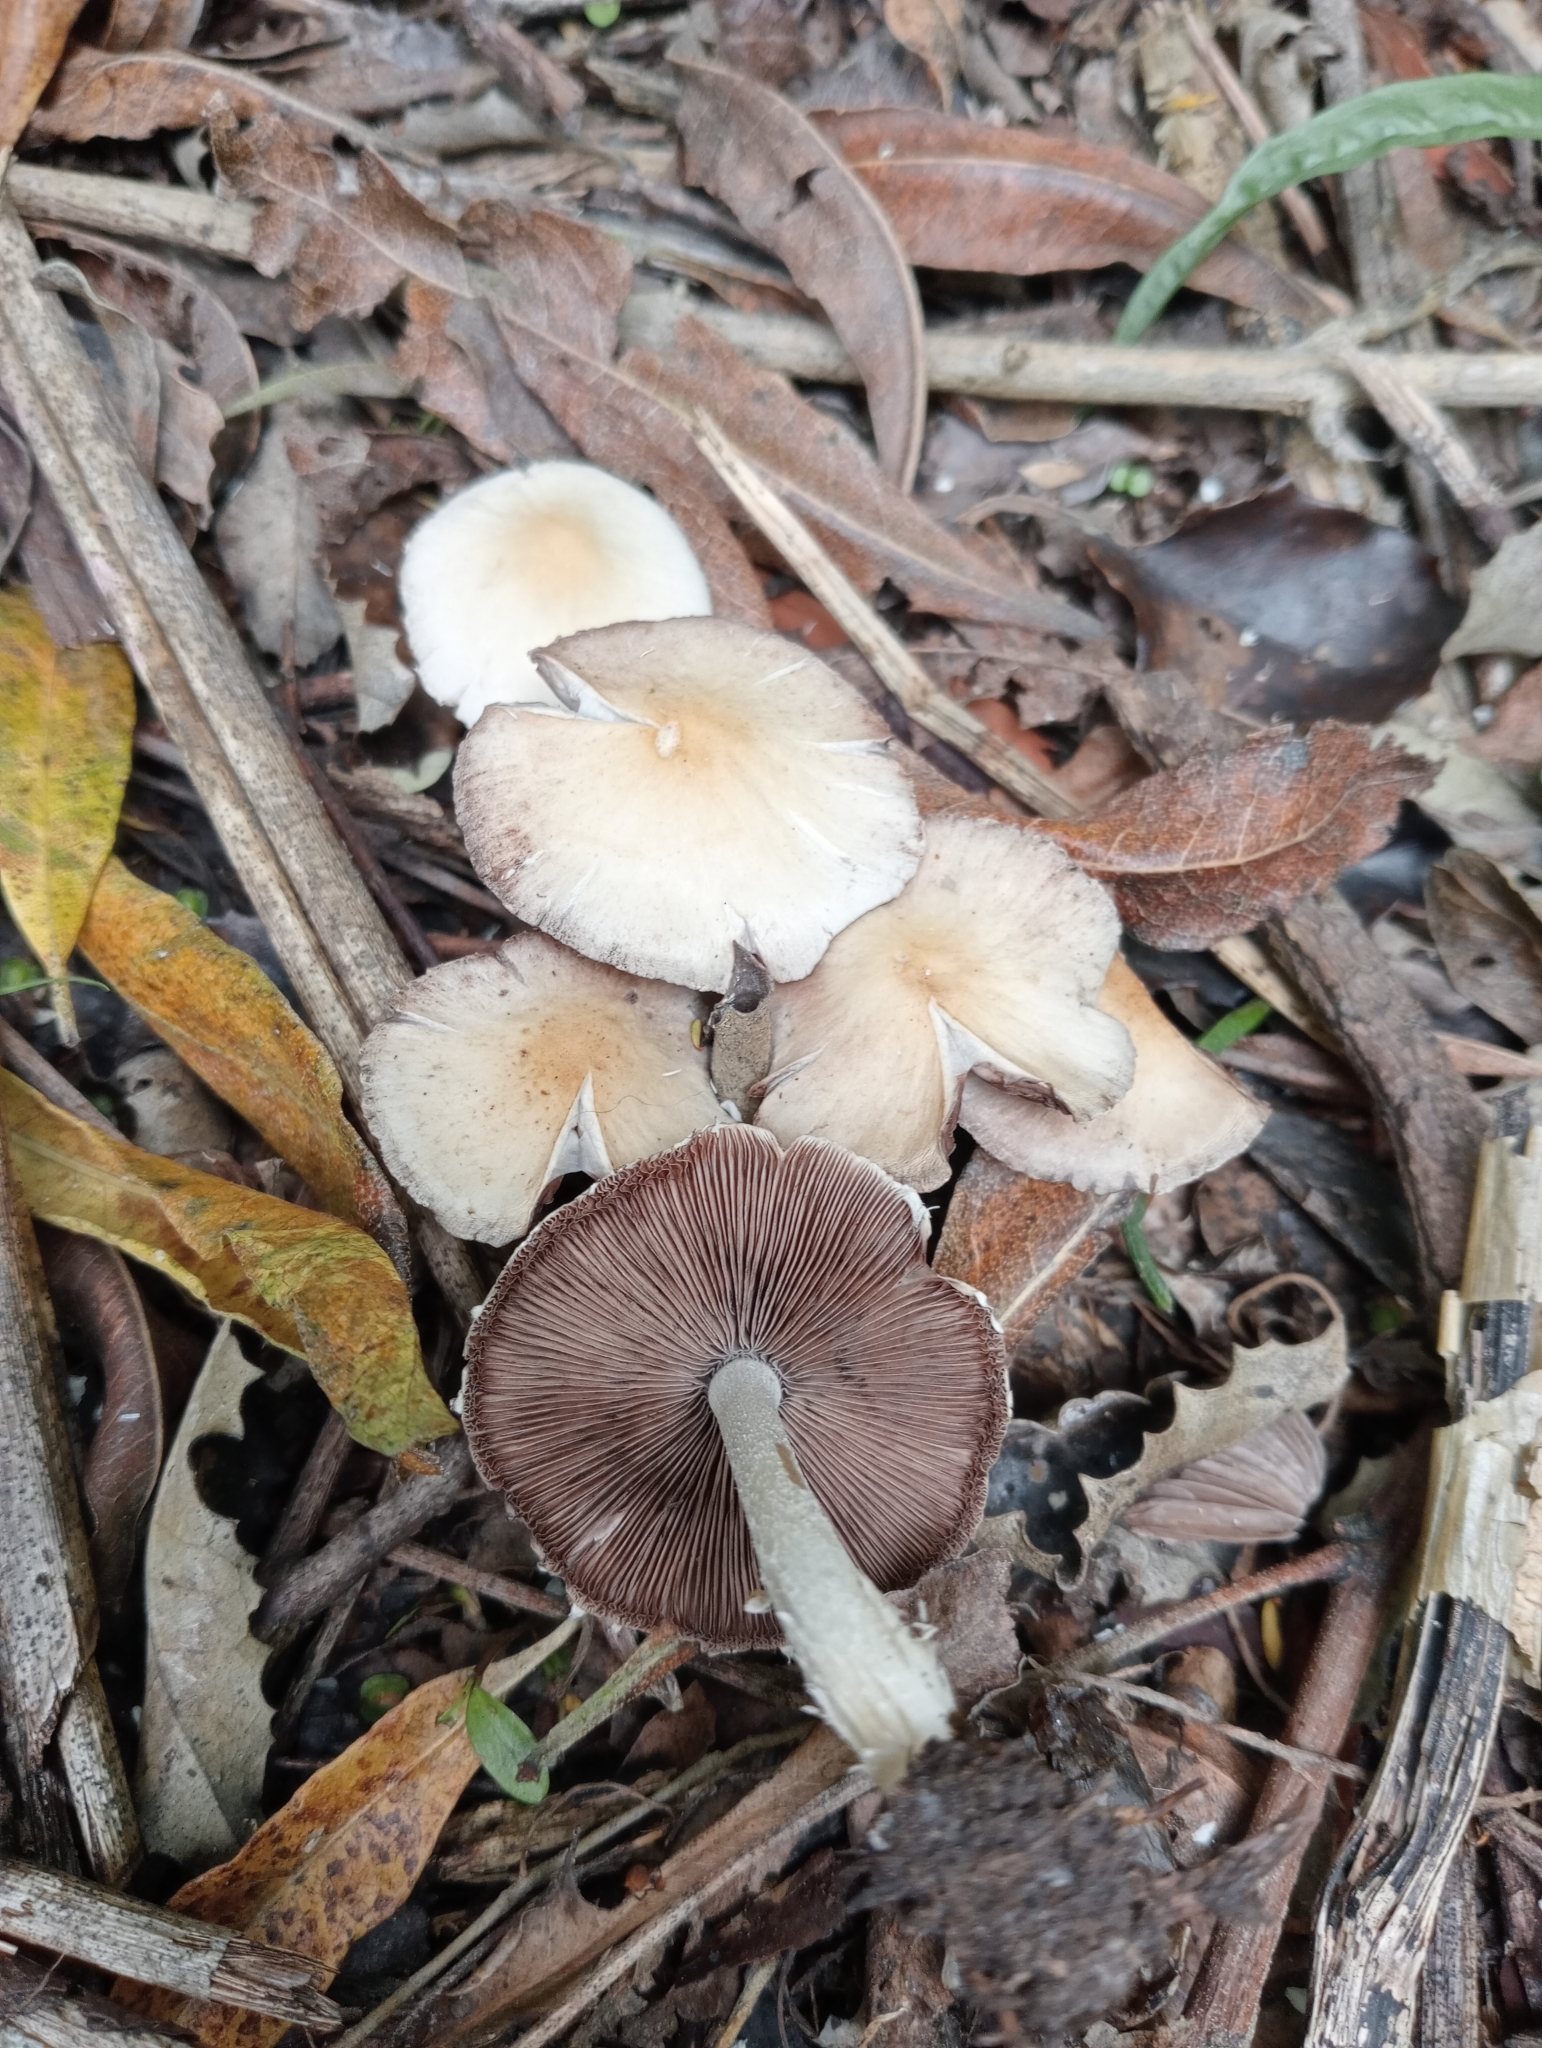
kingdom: Fungi
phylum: Basidiomycota
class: Agaricomycetes
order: Agaricales
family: Psathyrellaceae
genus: Candolleomyces
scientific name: Candolleomyces candolleanus
